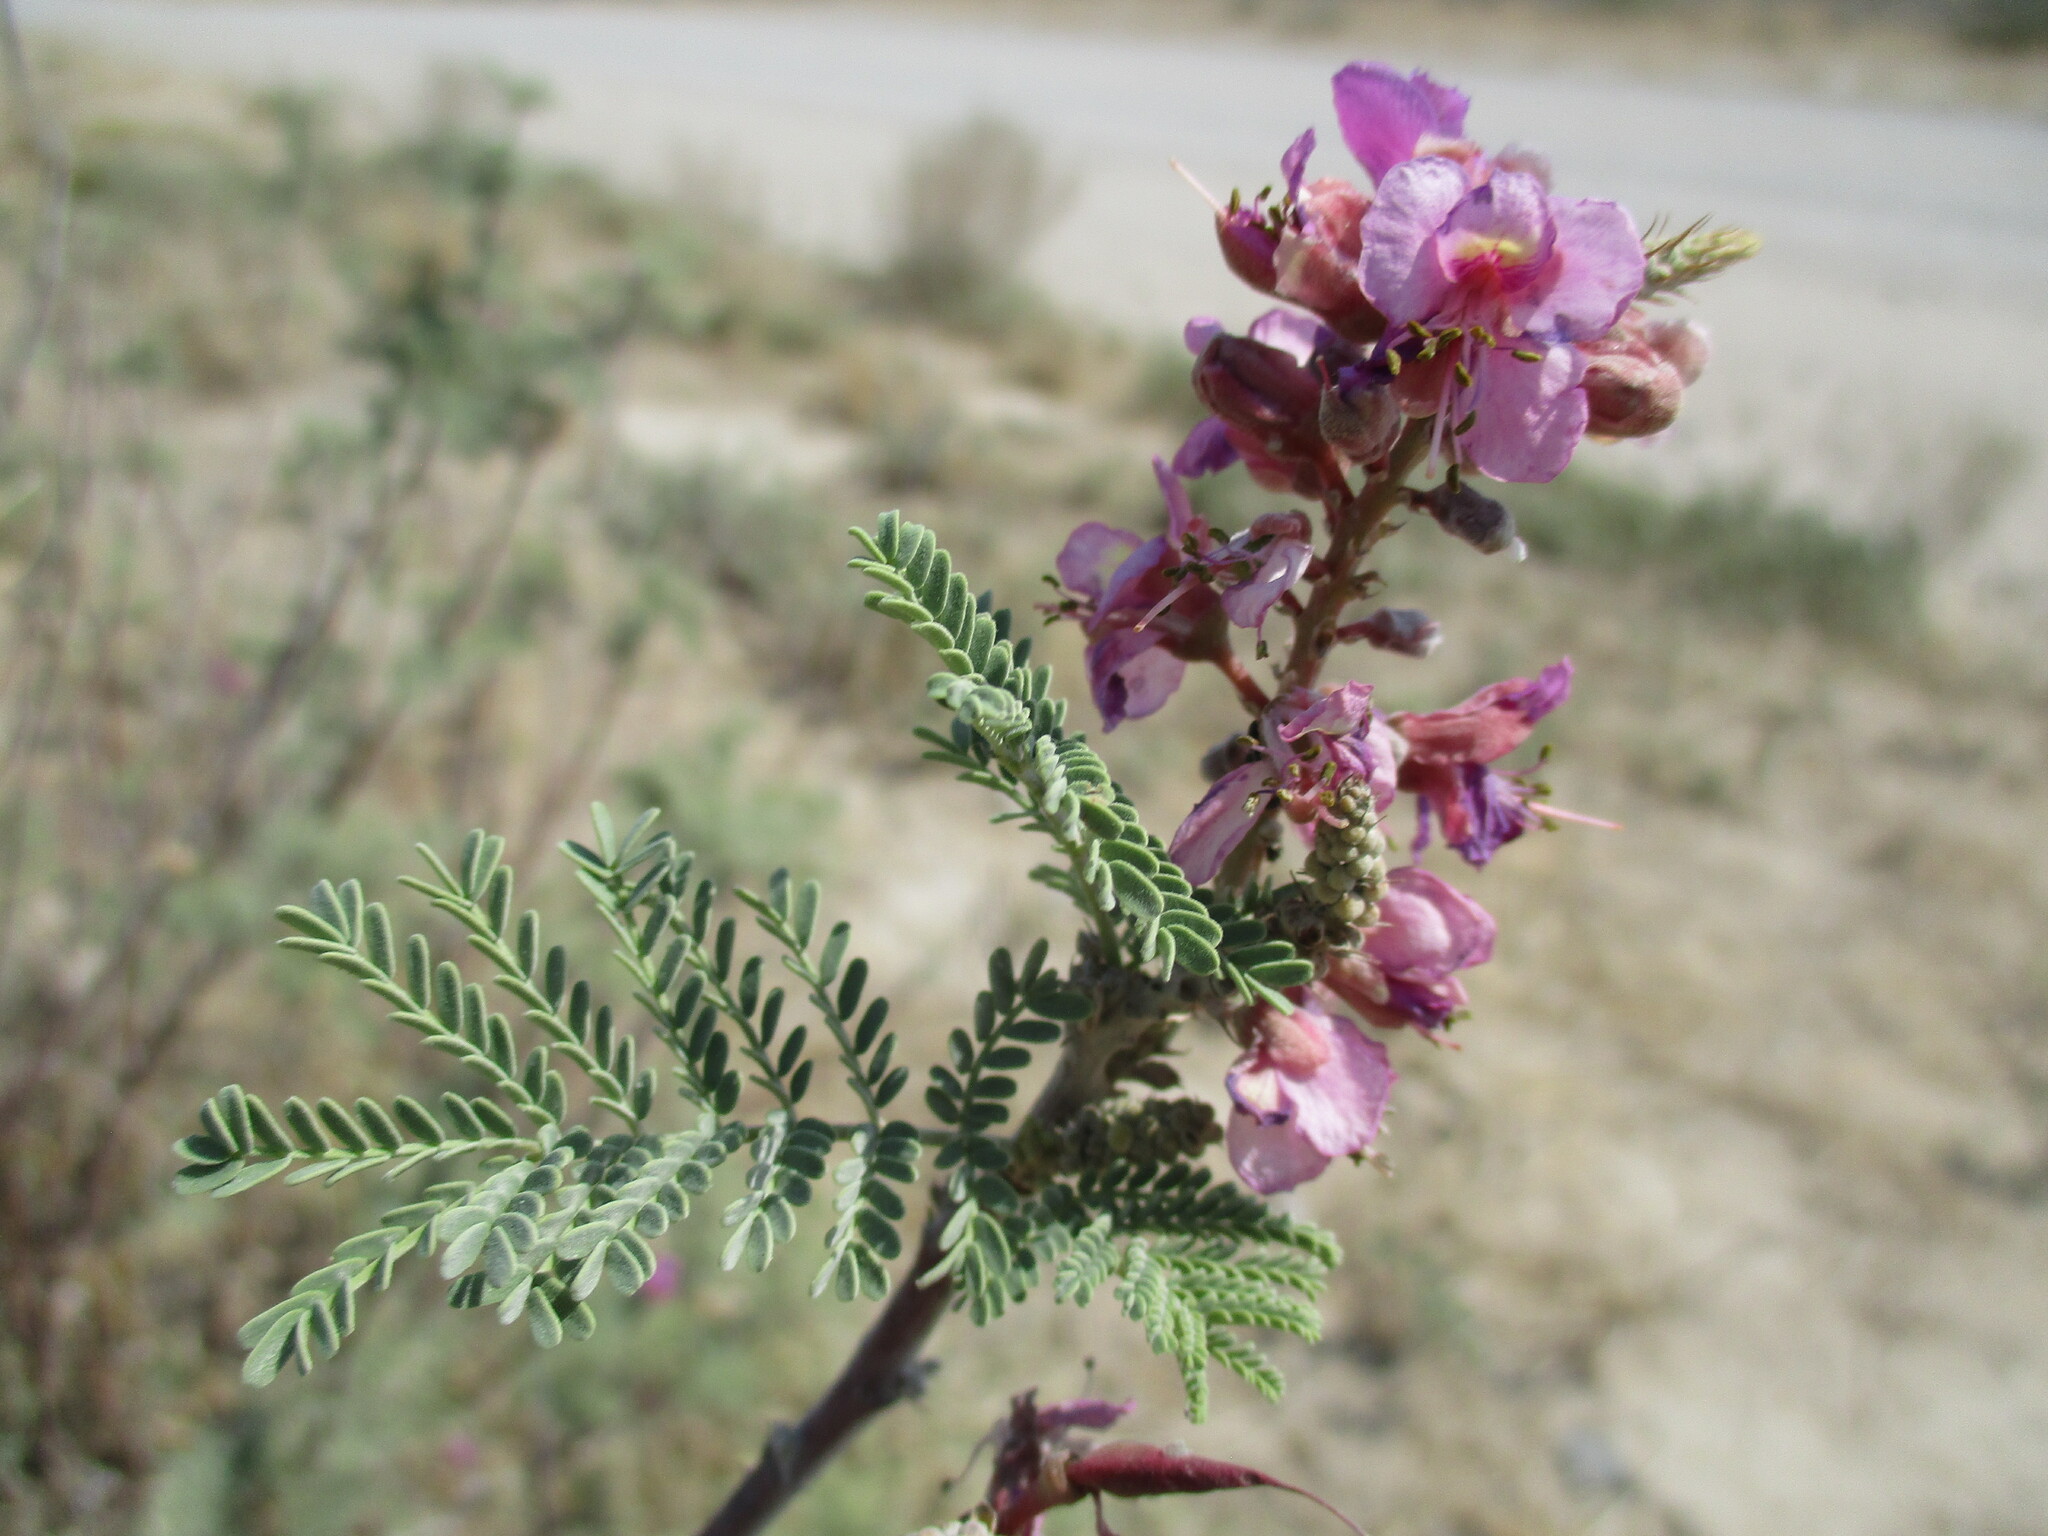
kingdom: Plantae
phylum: Tracheophyta
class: Magnoliopsida
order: Fabales
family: Fabaceae
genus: Gelrebia
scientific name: Gelrebia rubra
